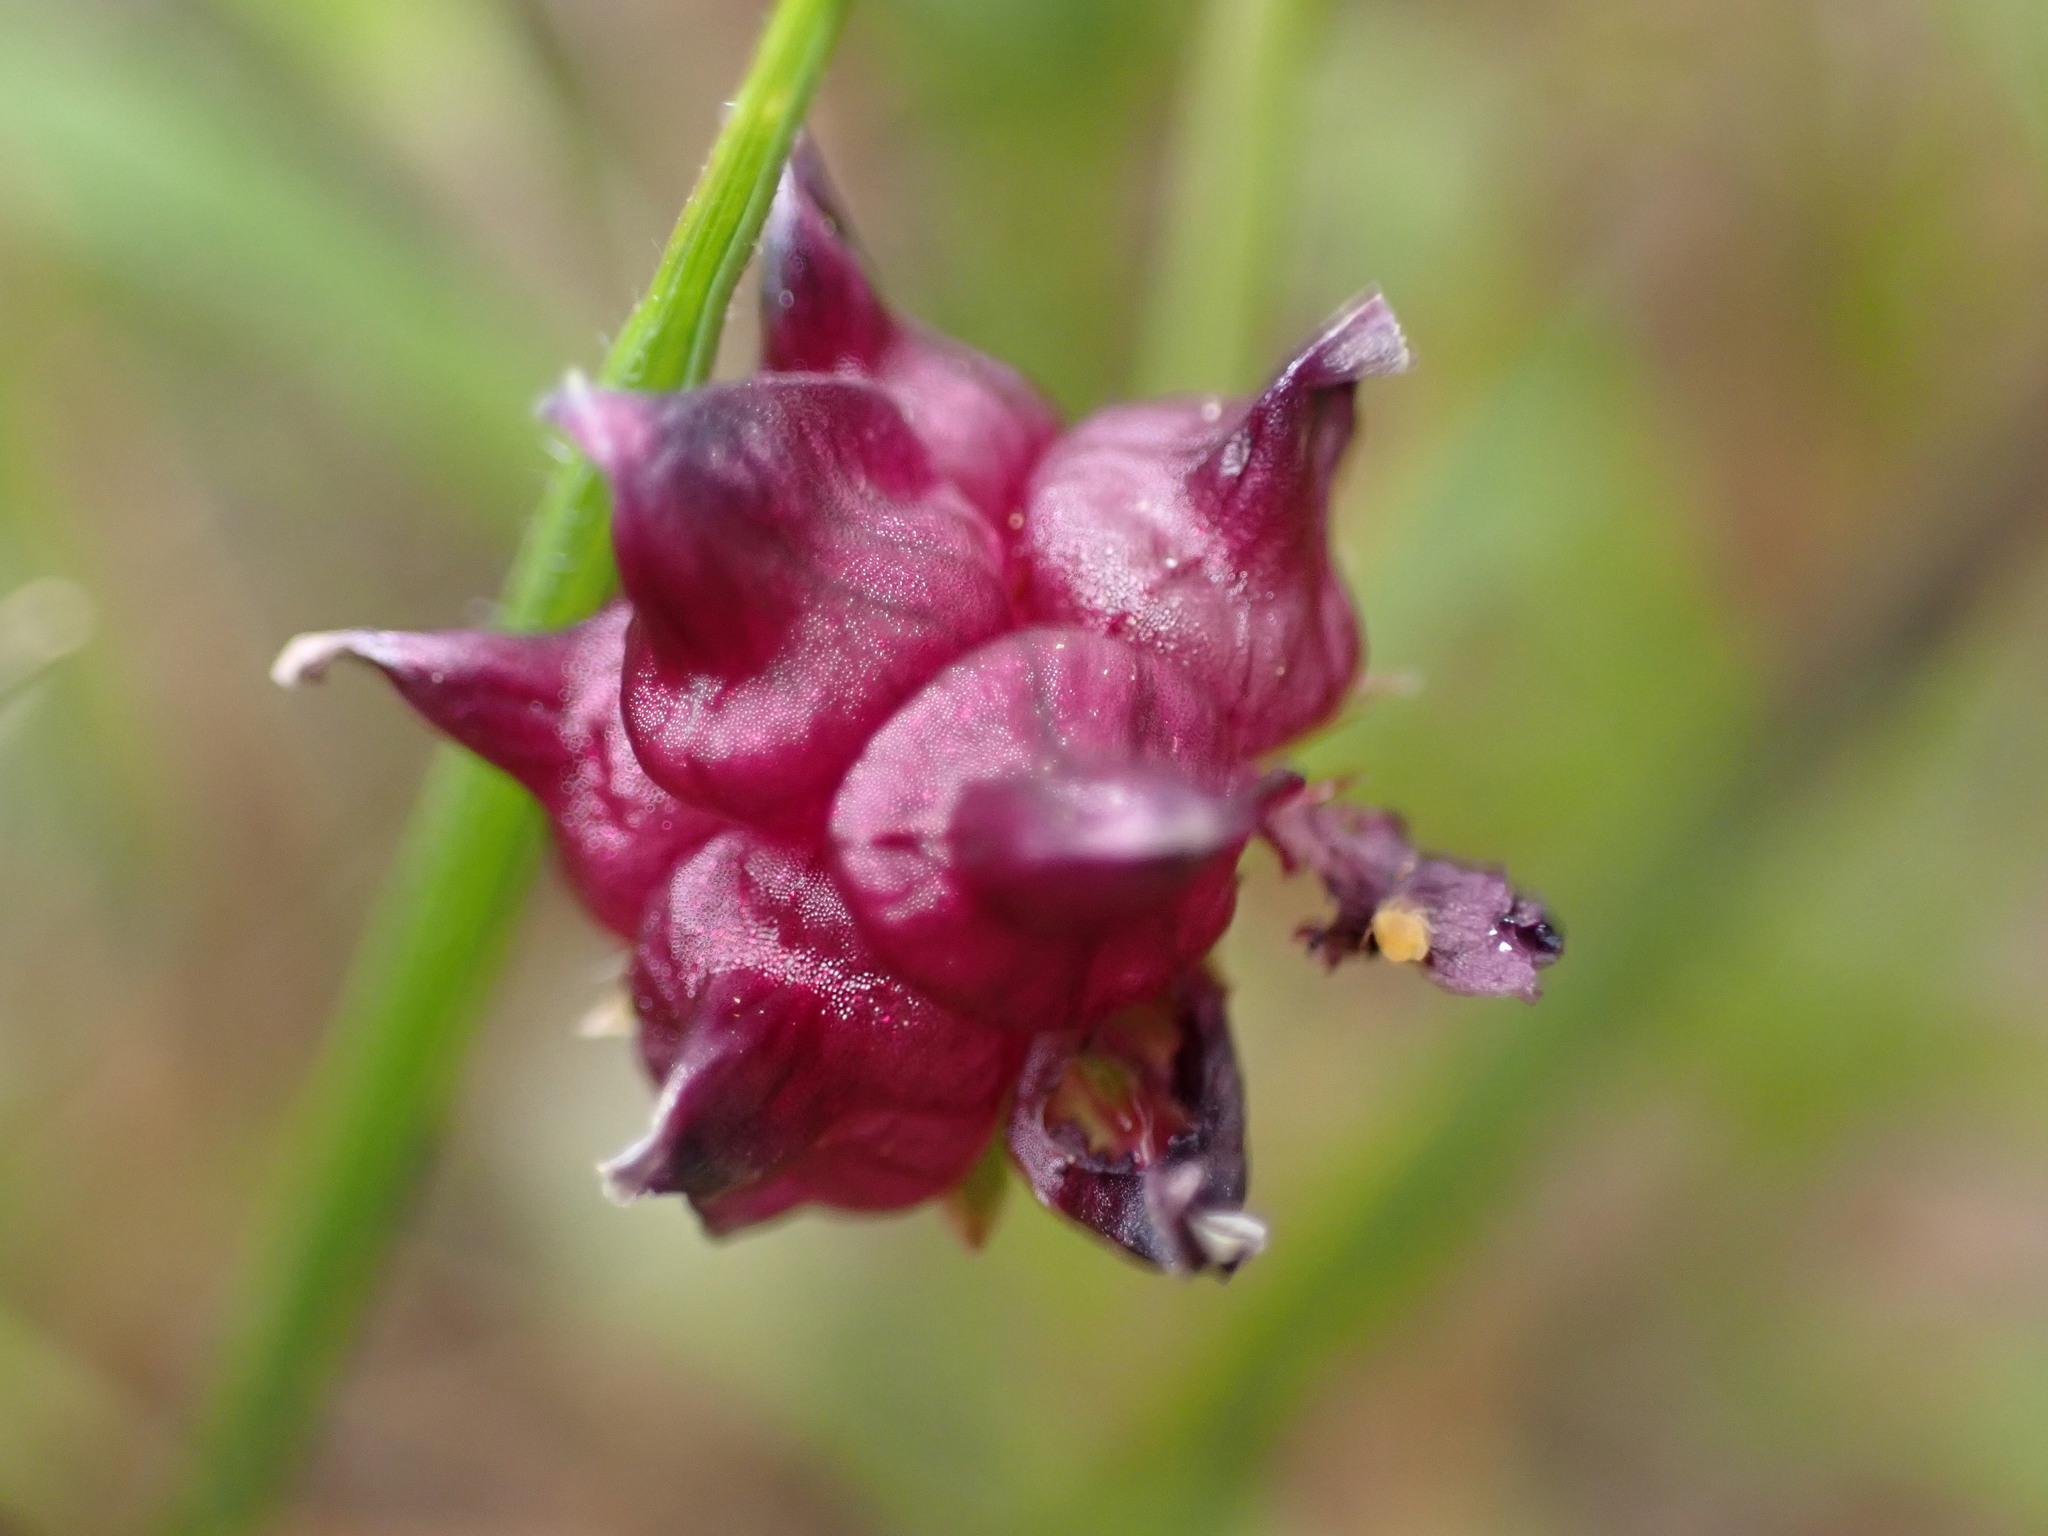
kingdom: Plantae
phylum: Tracheophyta
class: Magnoliopsida
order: Fabales
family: Fabaceae
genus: Trifolium
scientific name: Trifolium depauperatum
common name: Poverty clover
